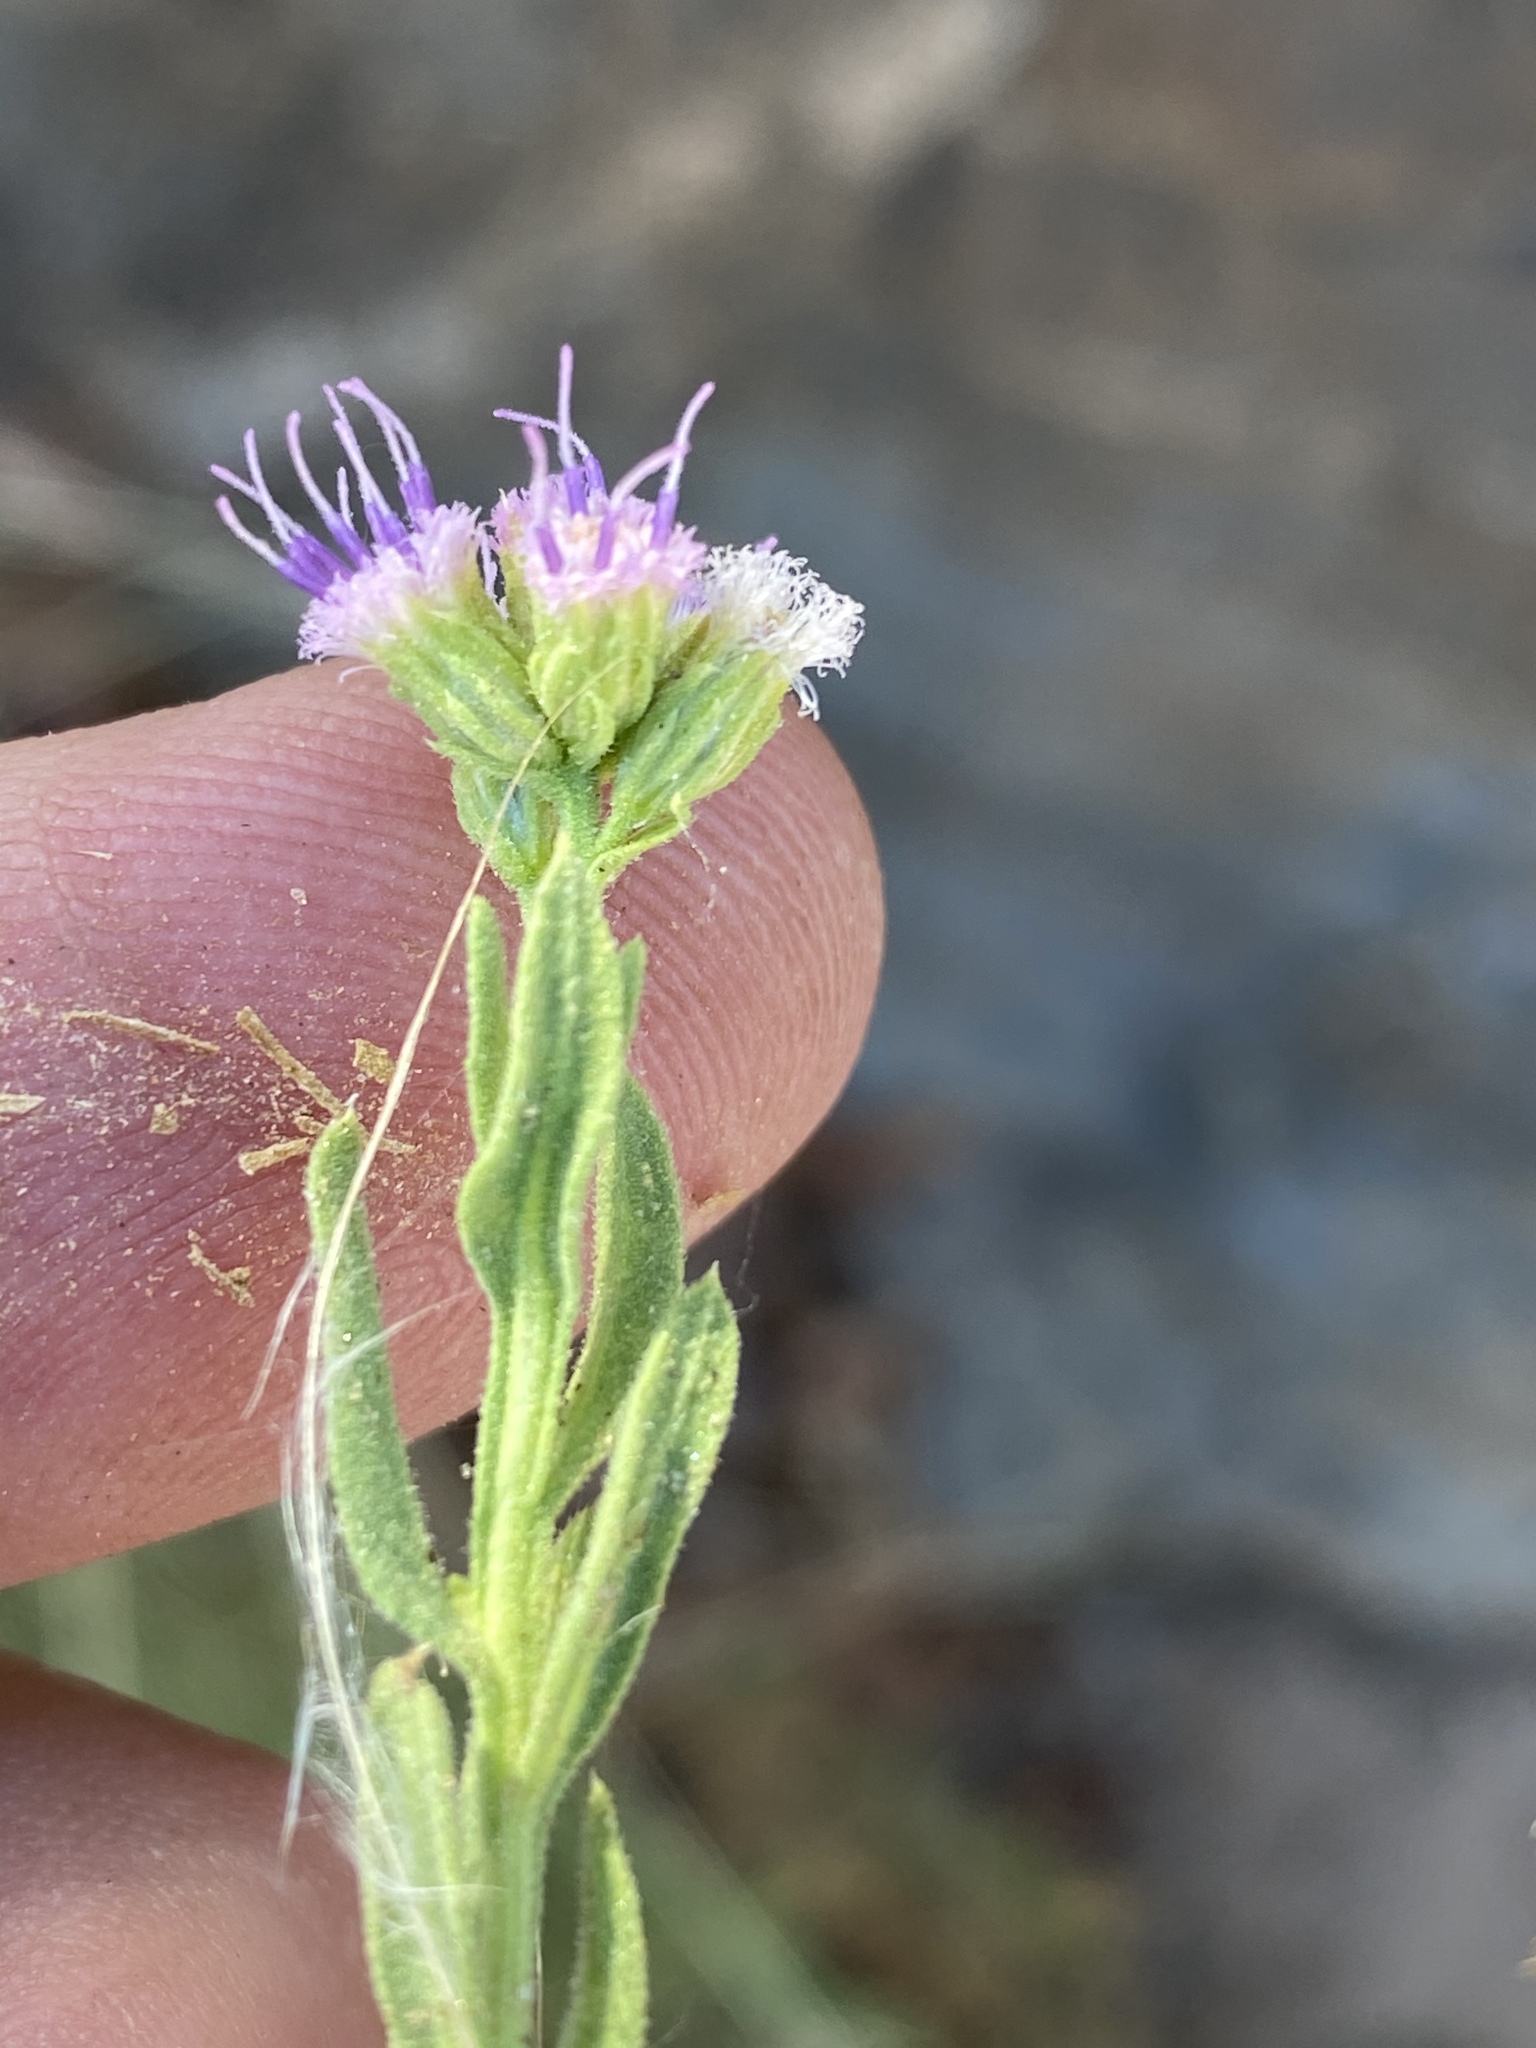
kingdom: Plantae
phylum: Tracheophyta
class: Magnoliopsida
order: Asterales
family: Asteraceae
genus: Litogyne
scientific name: Litogyne gariepina
